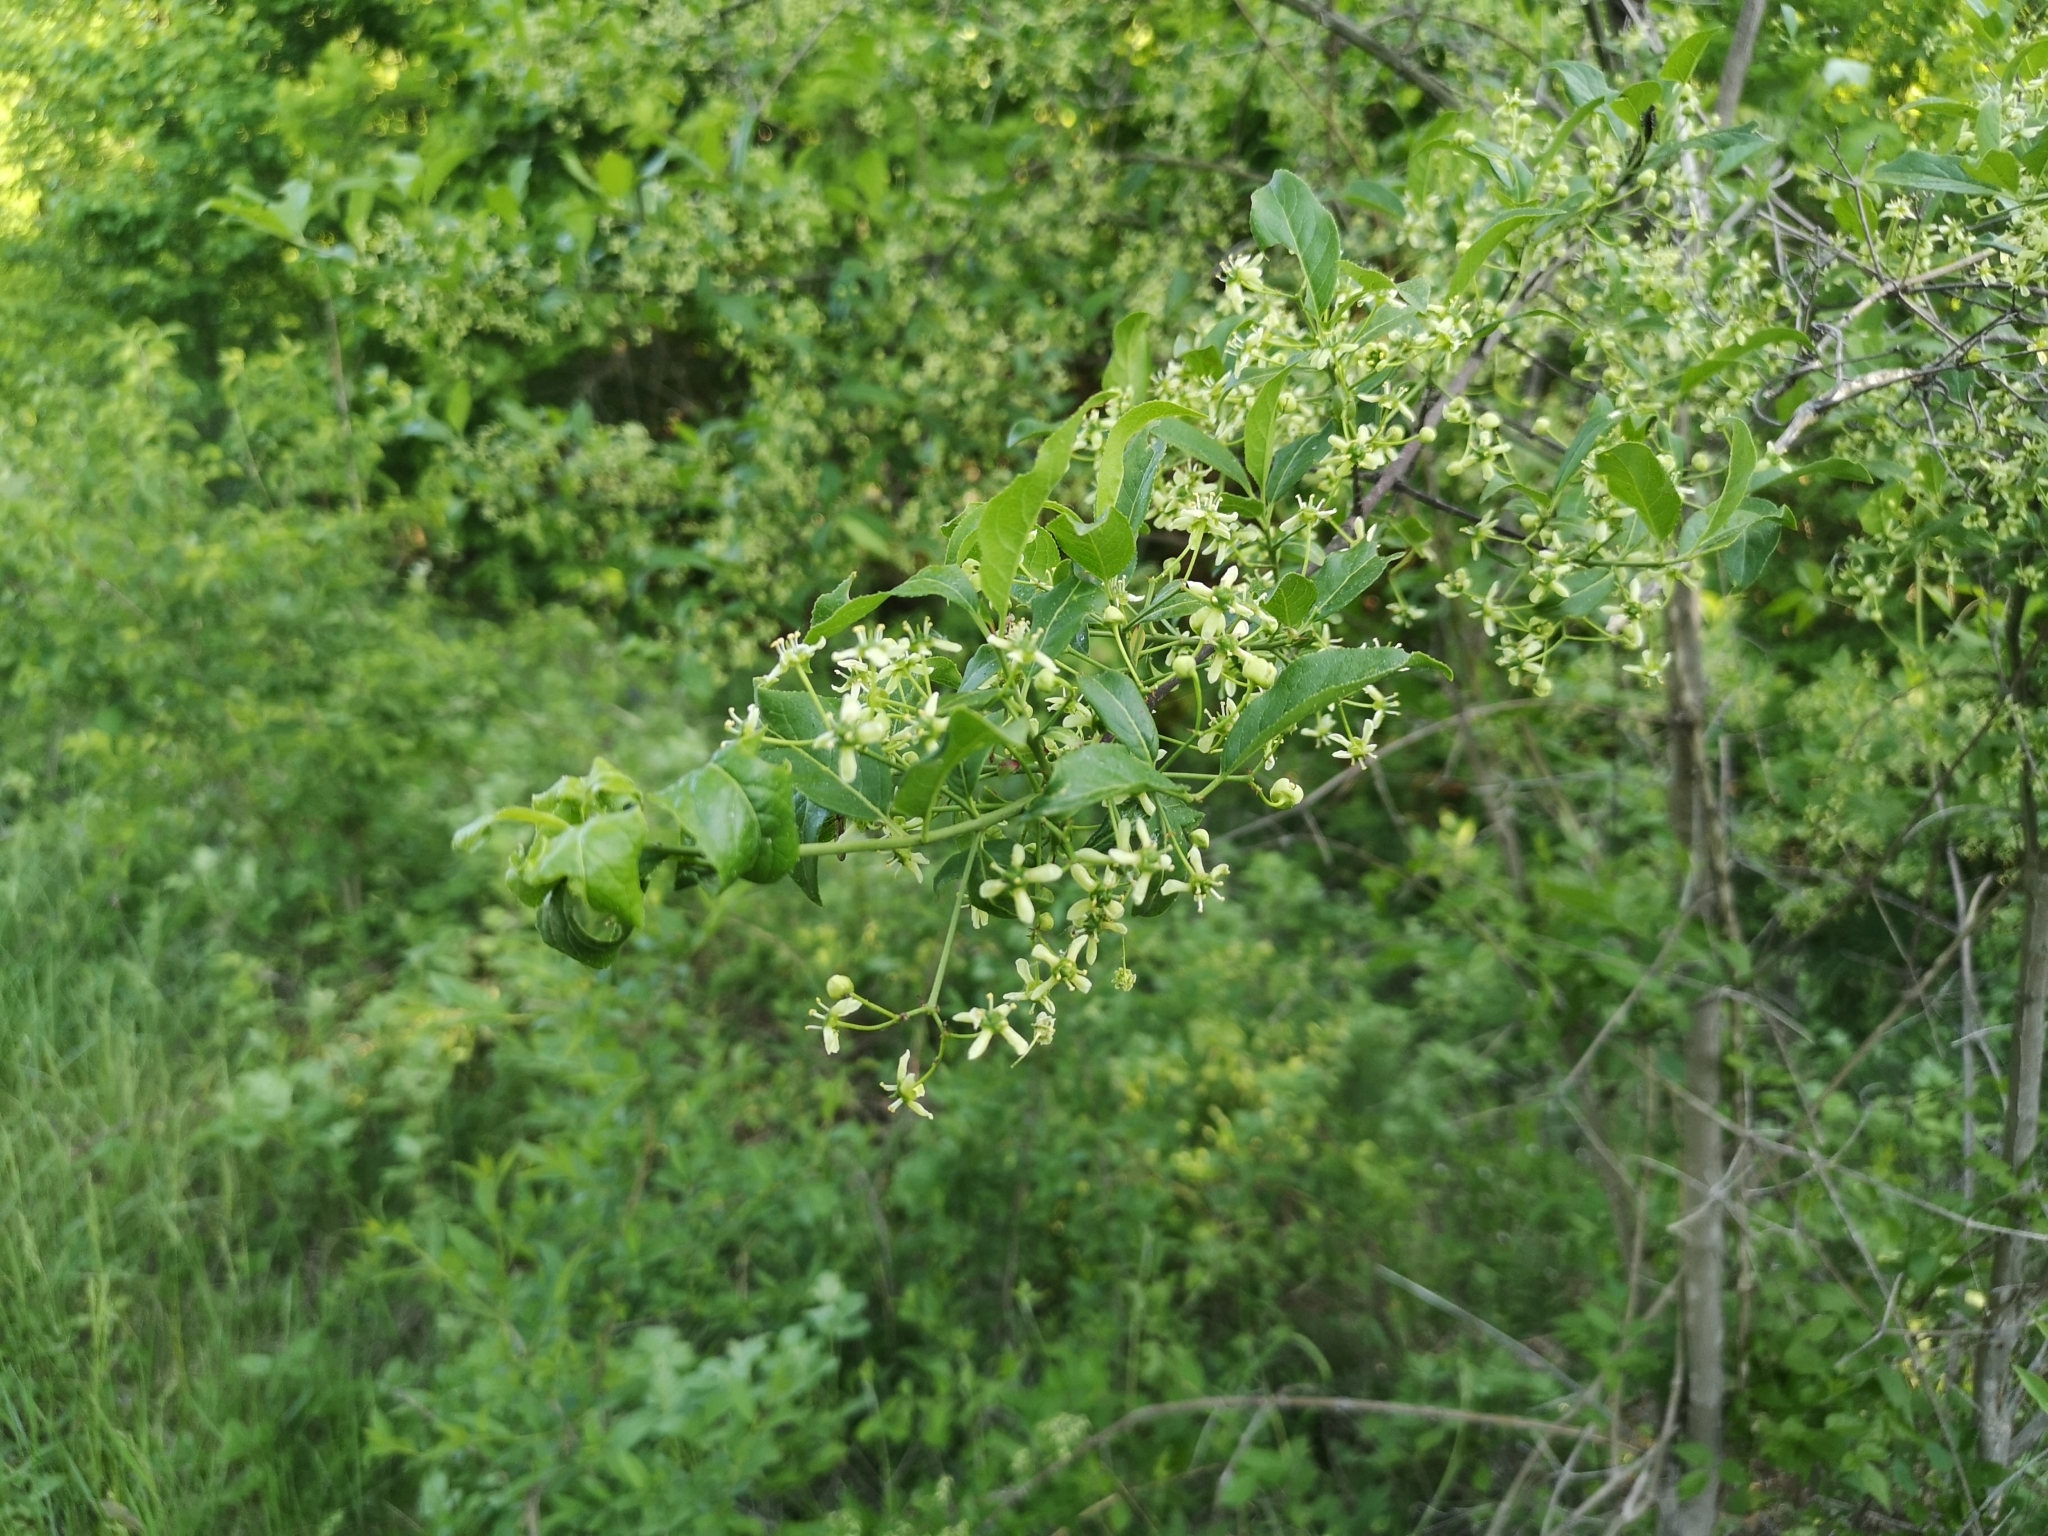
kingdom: Plantae
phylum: Tracheophyta
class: Magnoliopsida
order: Celastrales
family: Celastraceae
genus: Euonymus
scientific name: Euonymus europaeus
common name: Spindle
